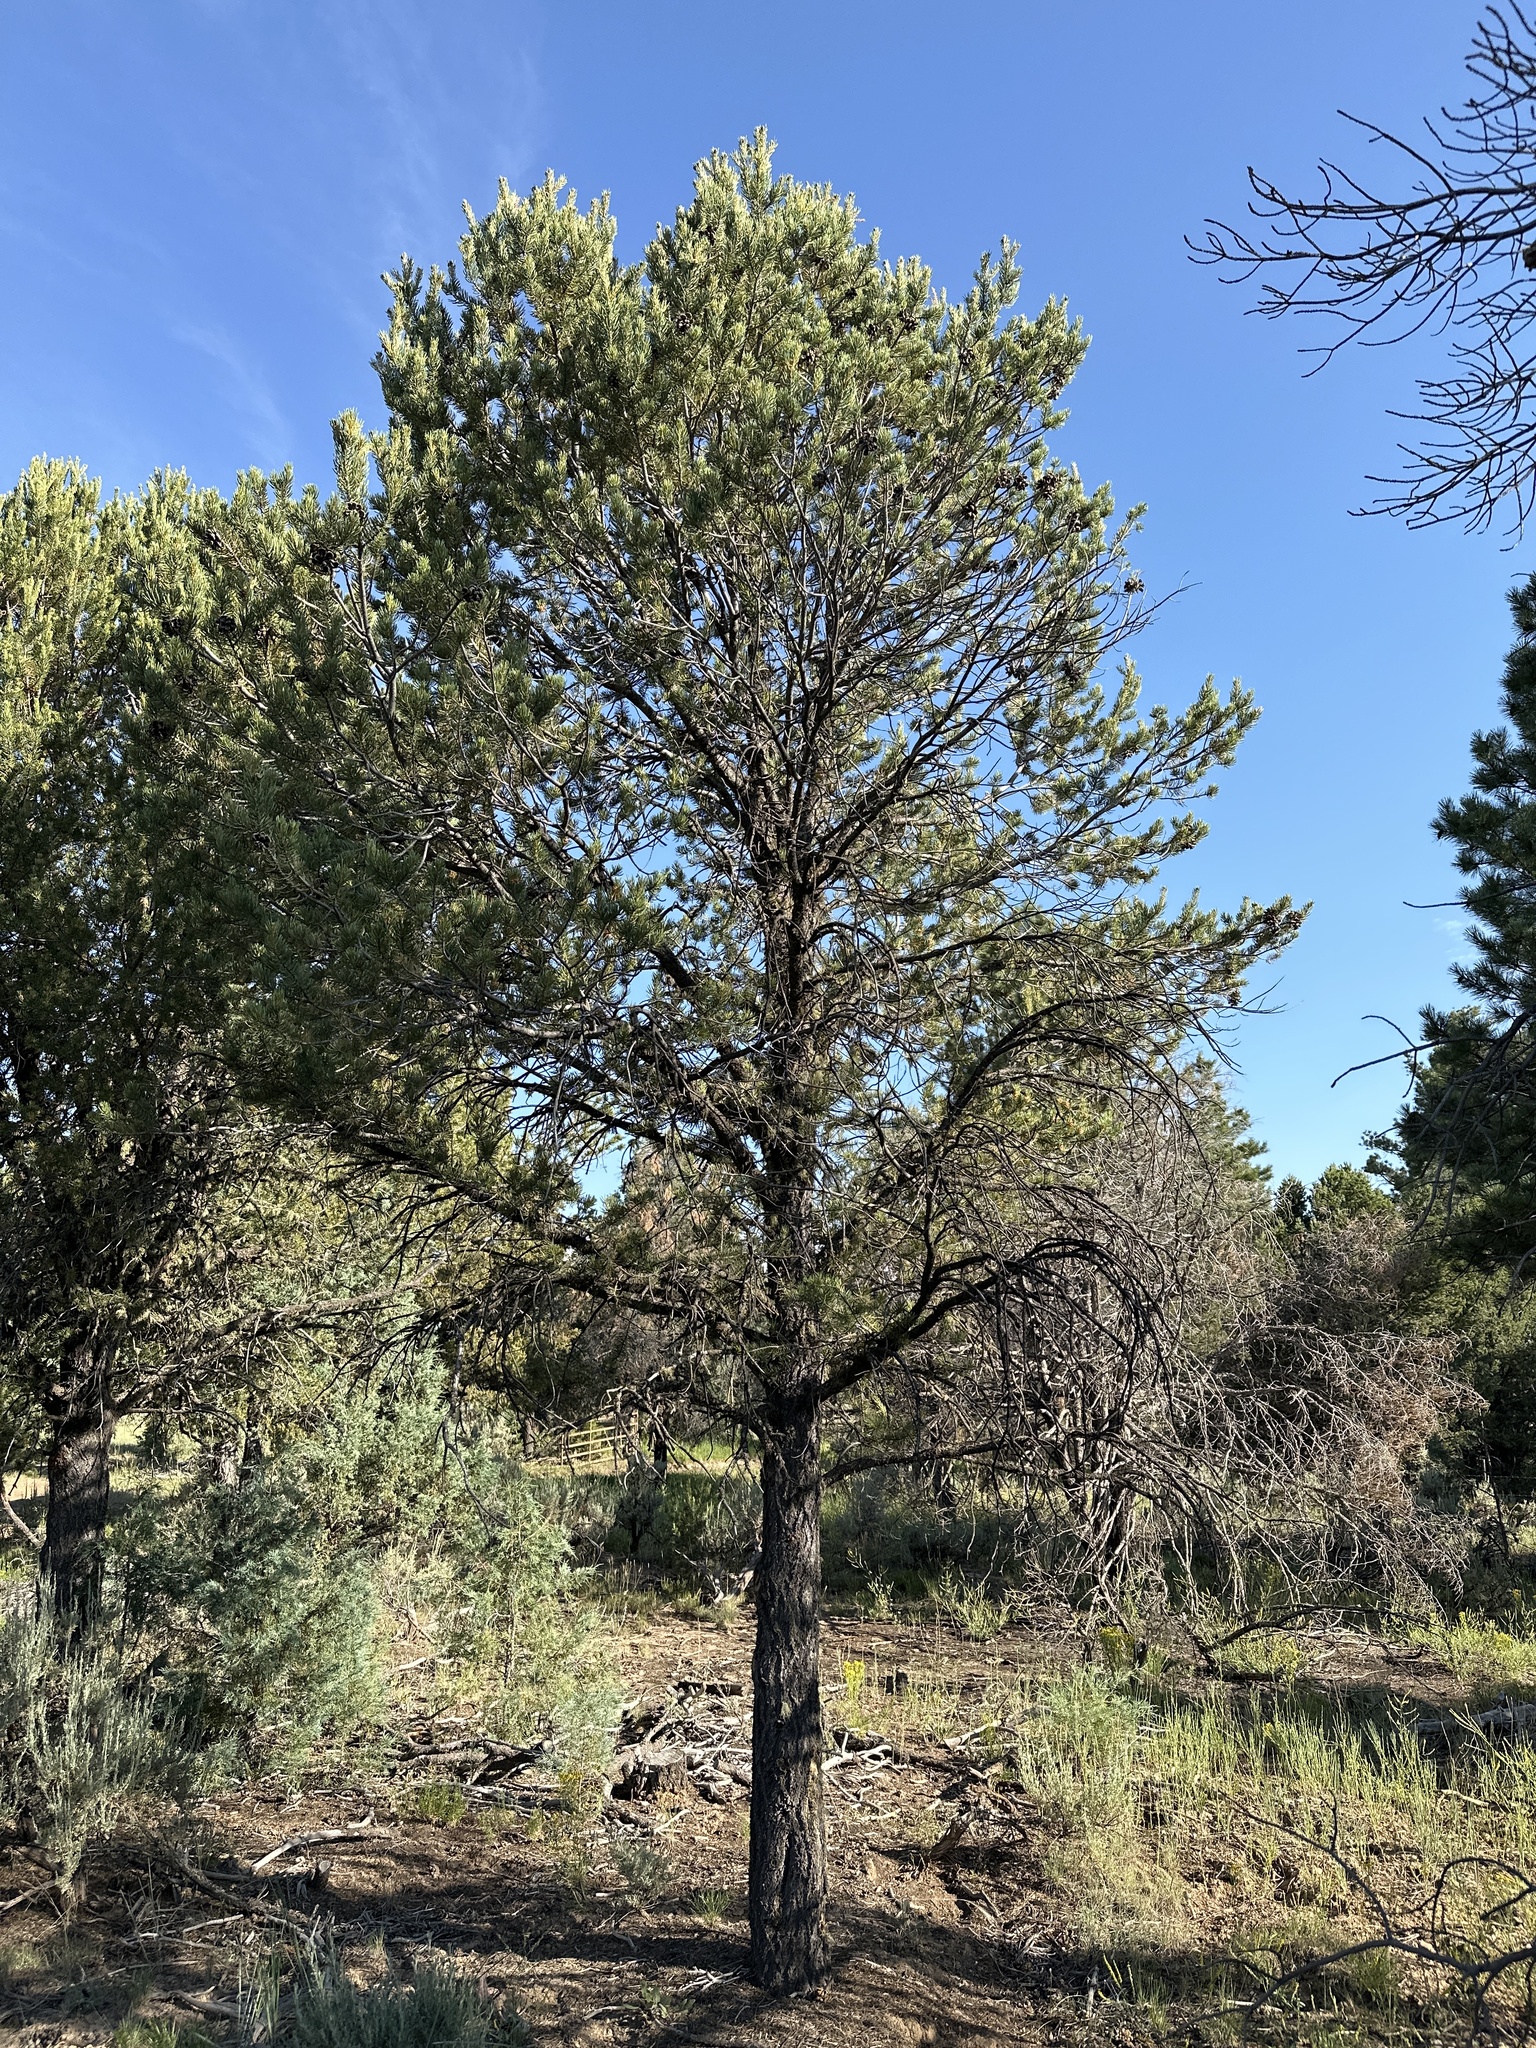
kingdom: Plantae
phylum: Tracheophyta
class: Pinopsida
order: Pinales
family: Pinaceae
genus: Pinus
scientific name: Pinus edulis
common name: Colorado pinyon
